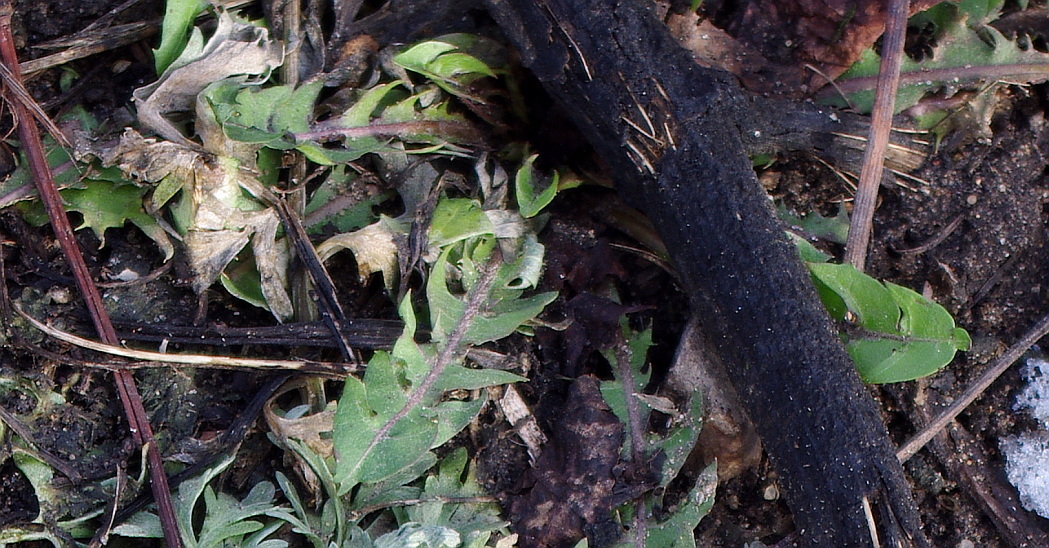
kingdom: Plantae
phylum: Tracheophyta
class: Magnoliopsida
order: Asterales
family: Asteraceae
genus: Taraxacum
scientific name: Taraxacum officinale
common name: Common dandelion
